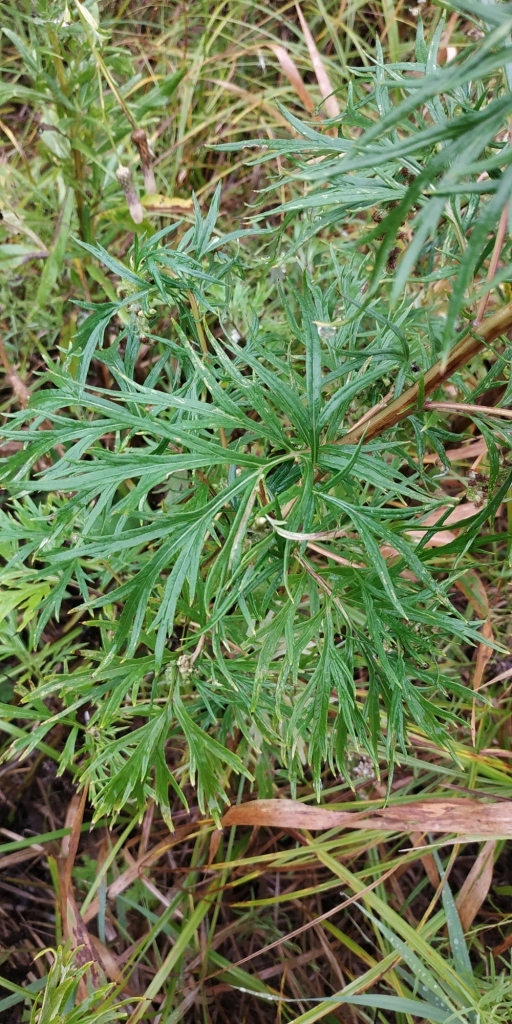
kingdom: Plantae
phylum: Tracheophyta
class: Magnoliopsida
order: Asterales
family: Asteraceae
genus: Artemisia
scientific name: Artemisia vulgaris
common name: Mugwort
